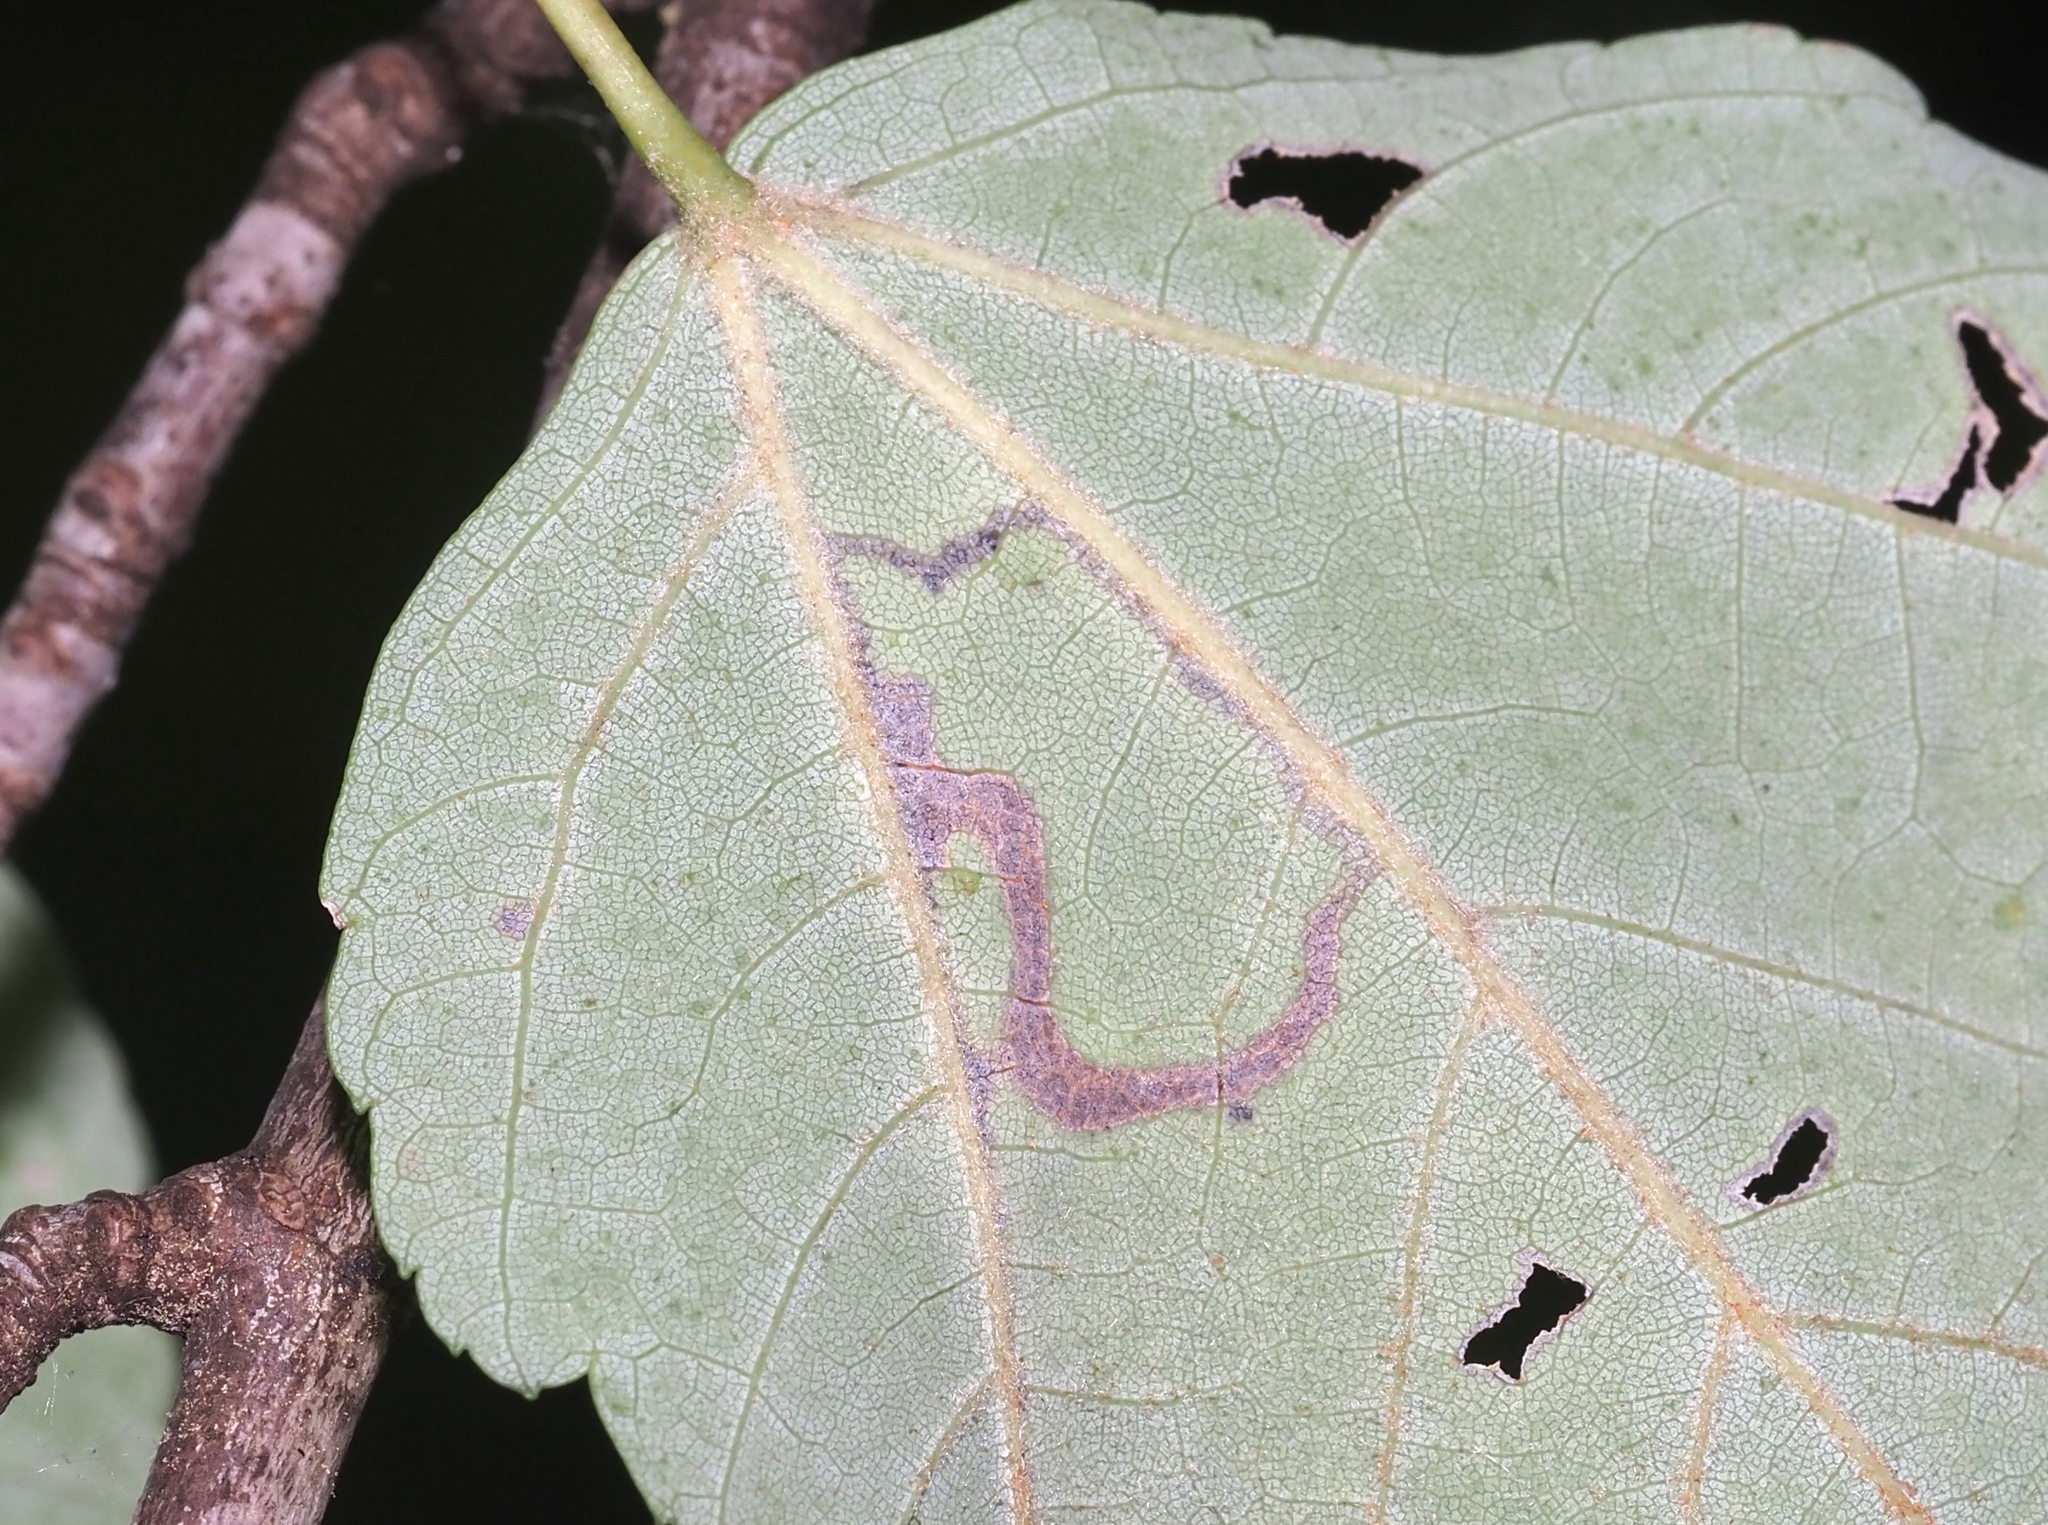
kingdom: Animalia
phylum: Arthropoda
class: Insecta
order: Lepidoptera
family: Nepticulidae
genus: Glaucolepis
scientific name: Glaucolepis saccharella
